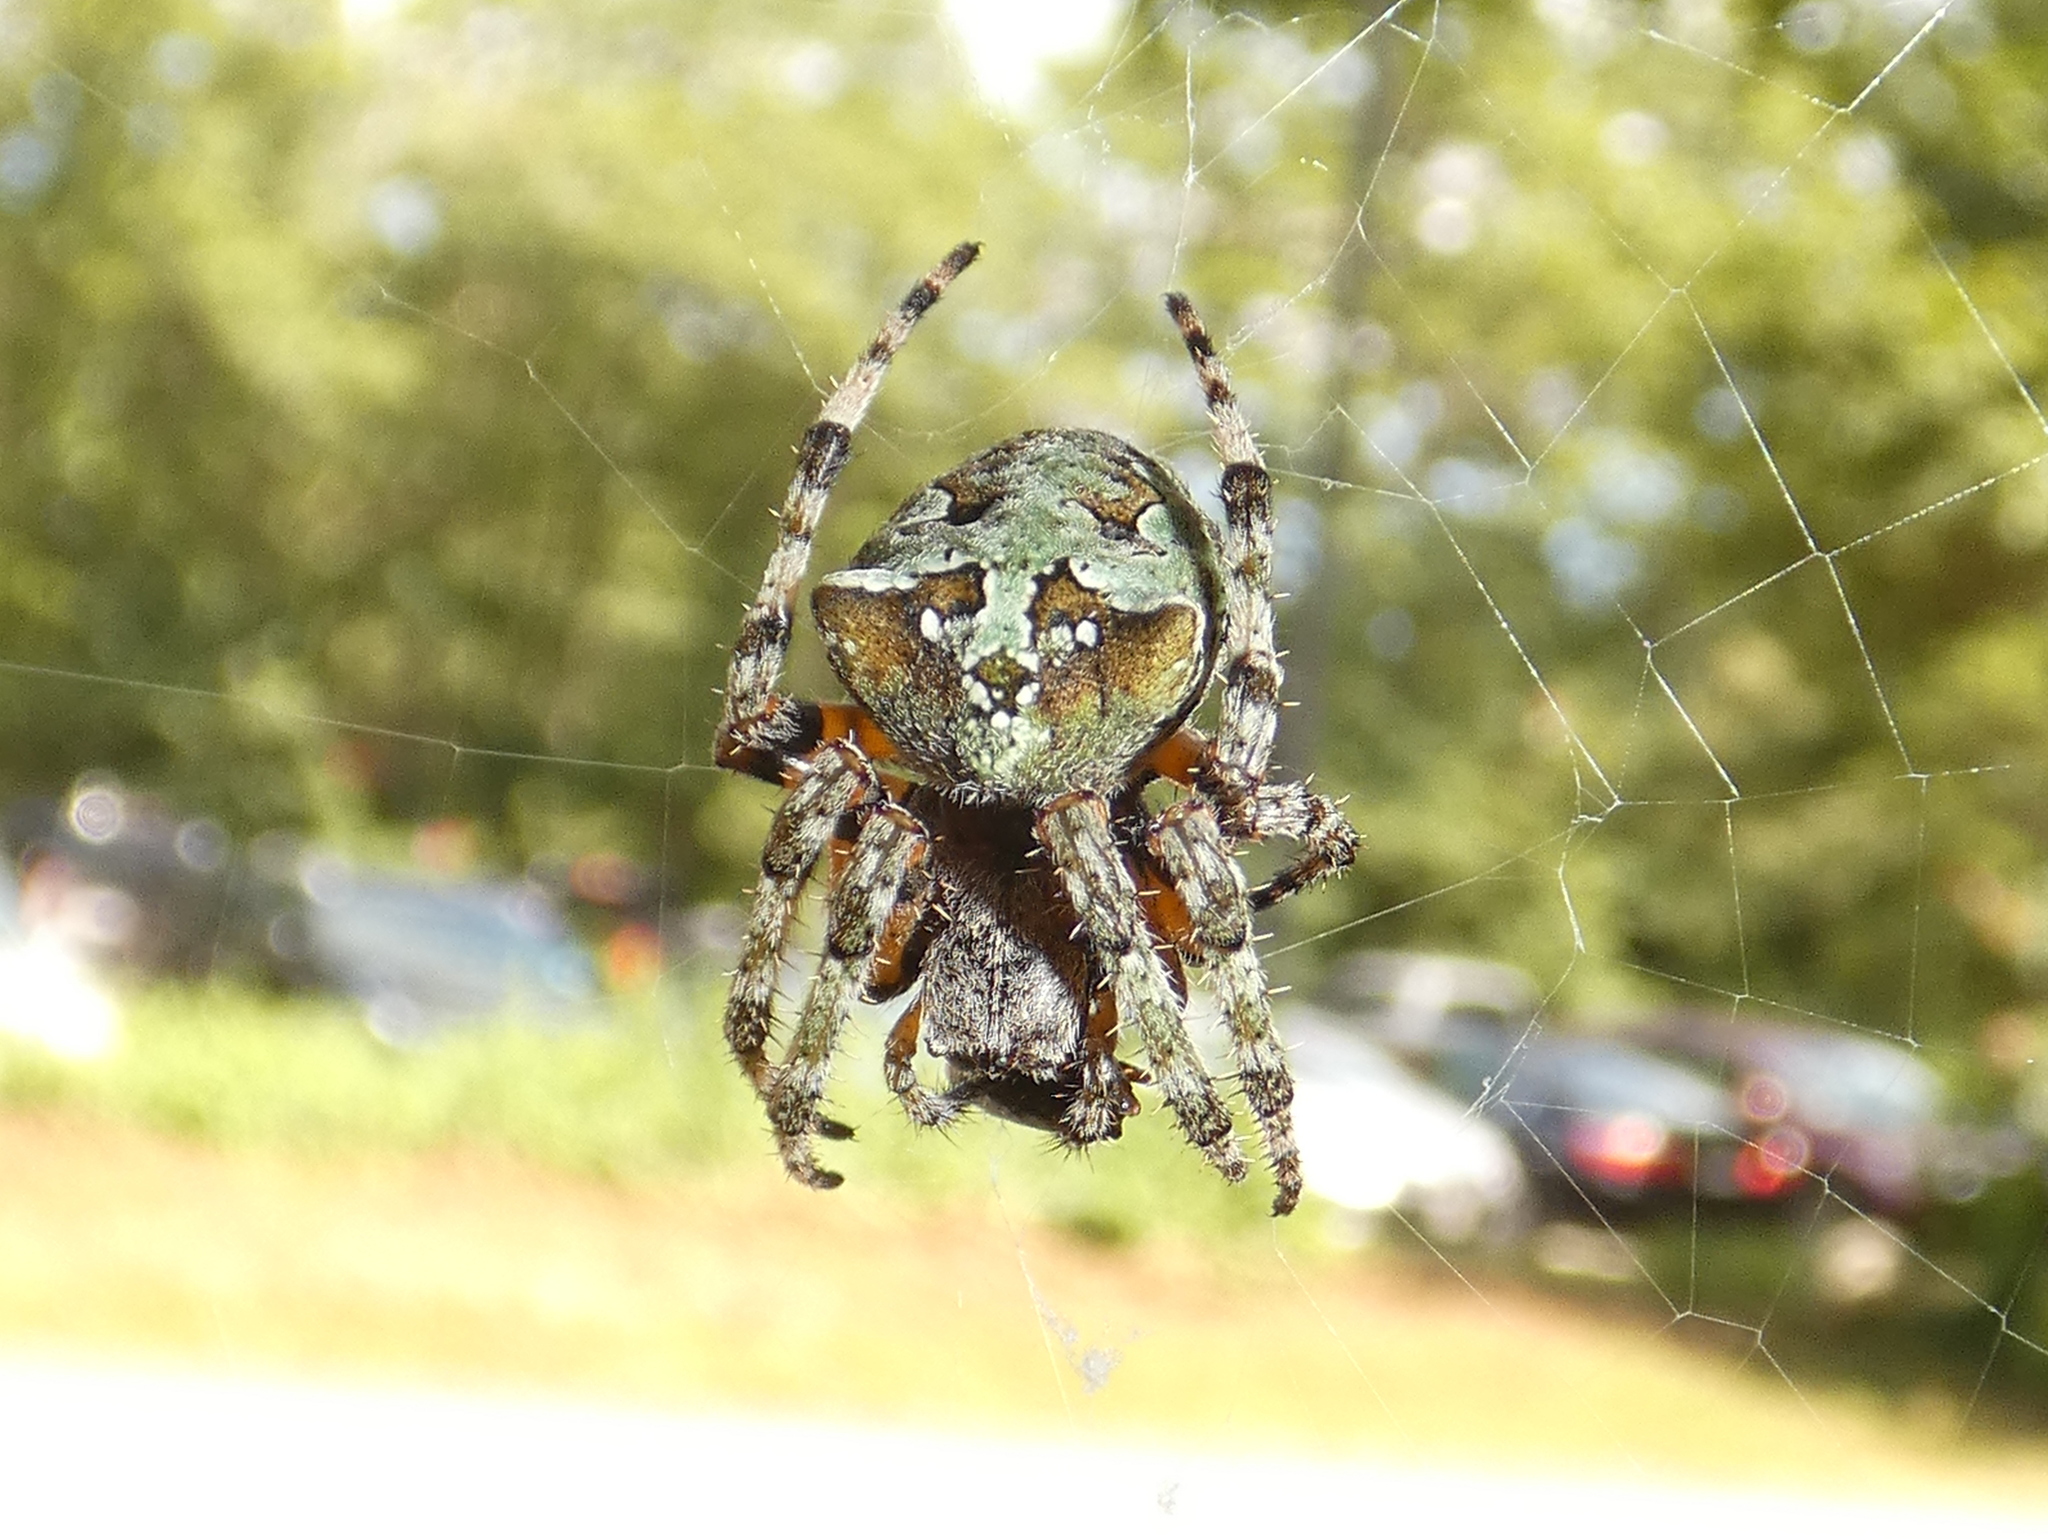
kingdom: Animalia
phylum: Arthropoda
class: Arachnida
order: Araneae
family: Araneidae
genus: Araneus
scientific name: Araneus bicentenarius
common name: Giant lichen orbweaver
